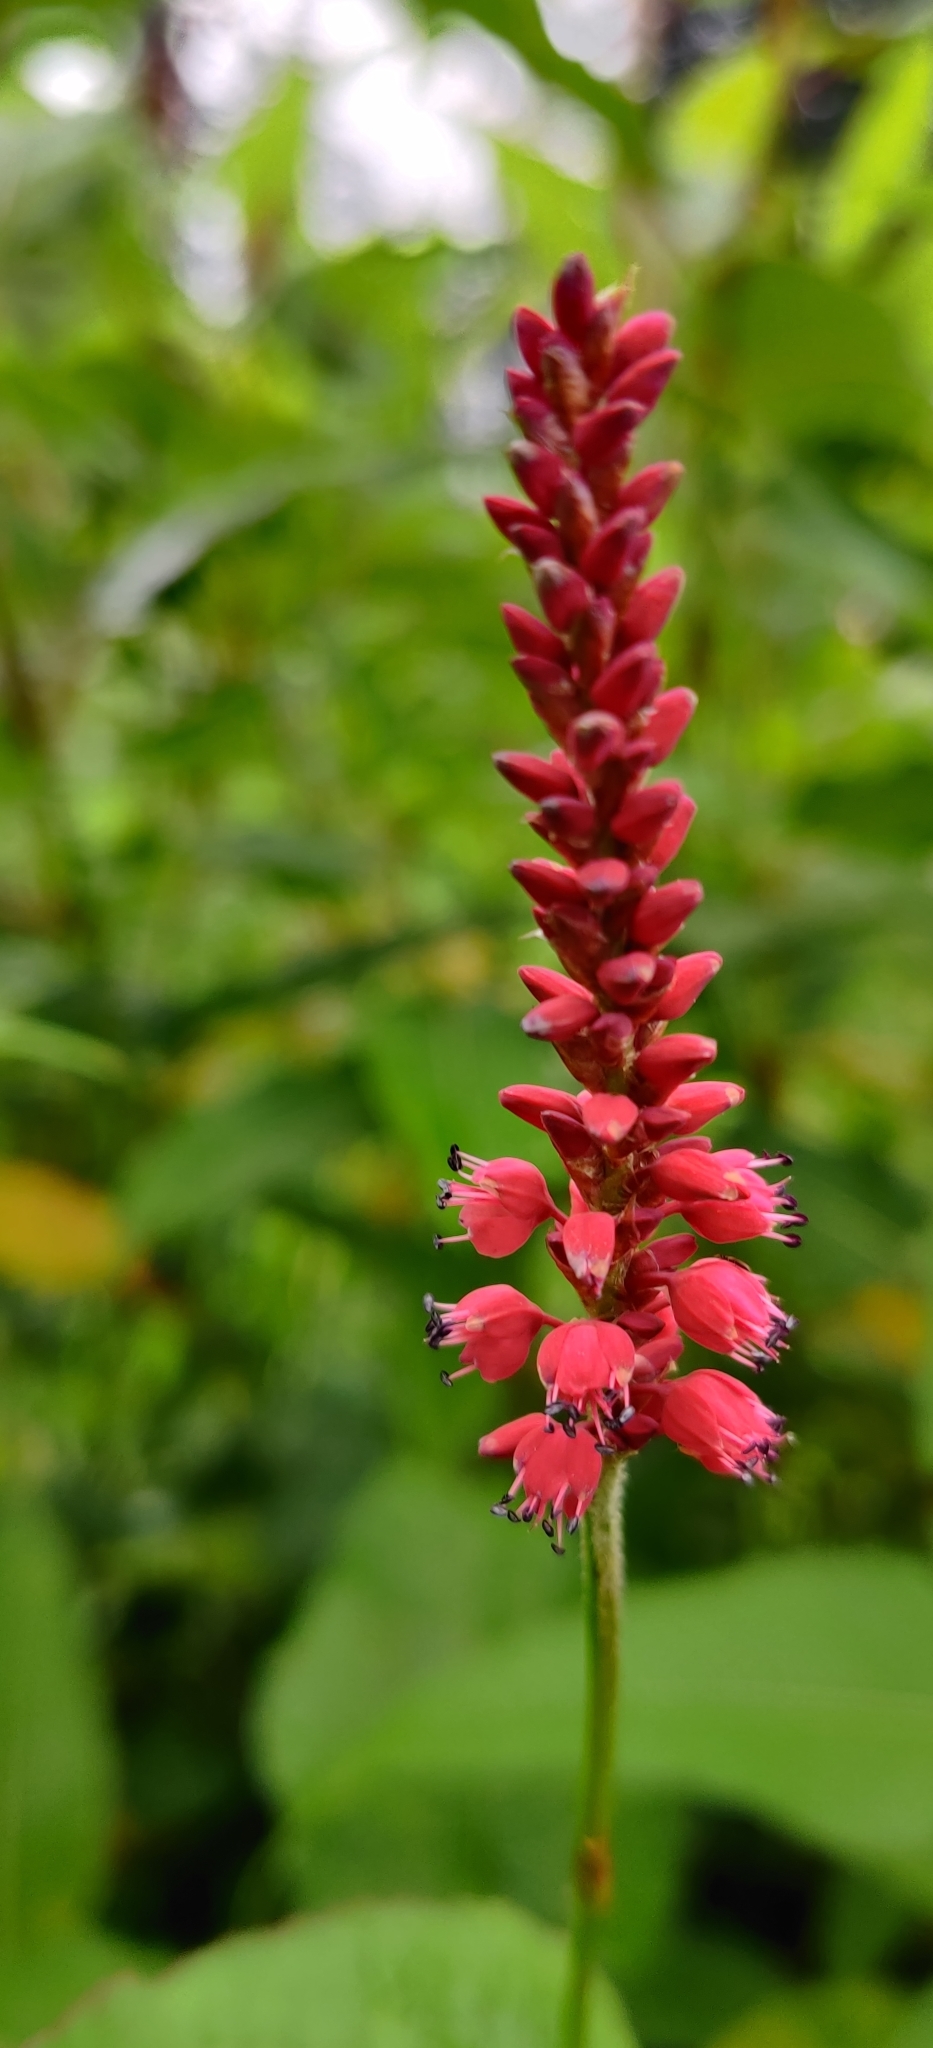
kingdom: Plantae
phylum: Tracheophyta
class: Magnoliopsida
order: Caryophyllales
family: Polygonaceae
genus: Bistorta
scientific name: Bistorta amplexicaulis
